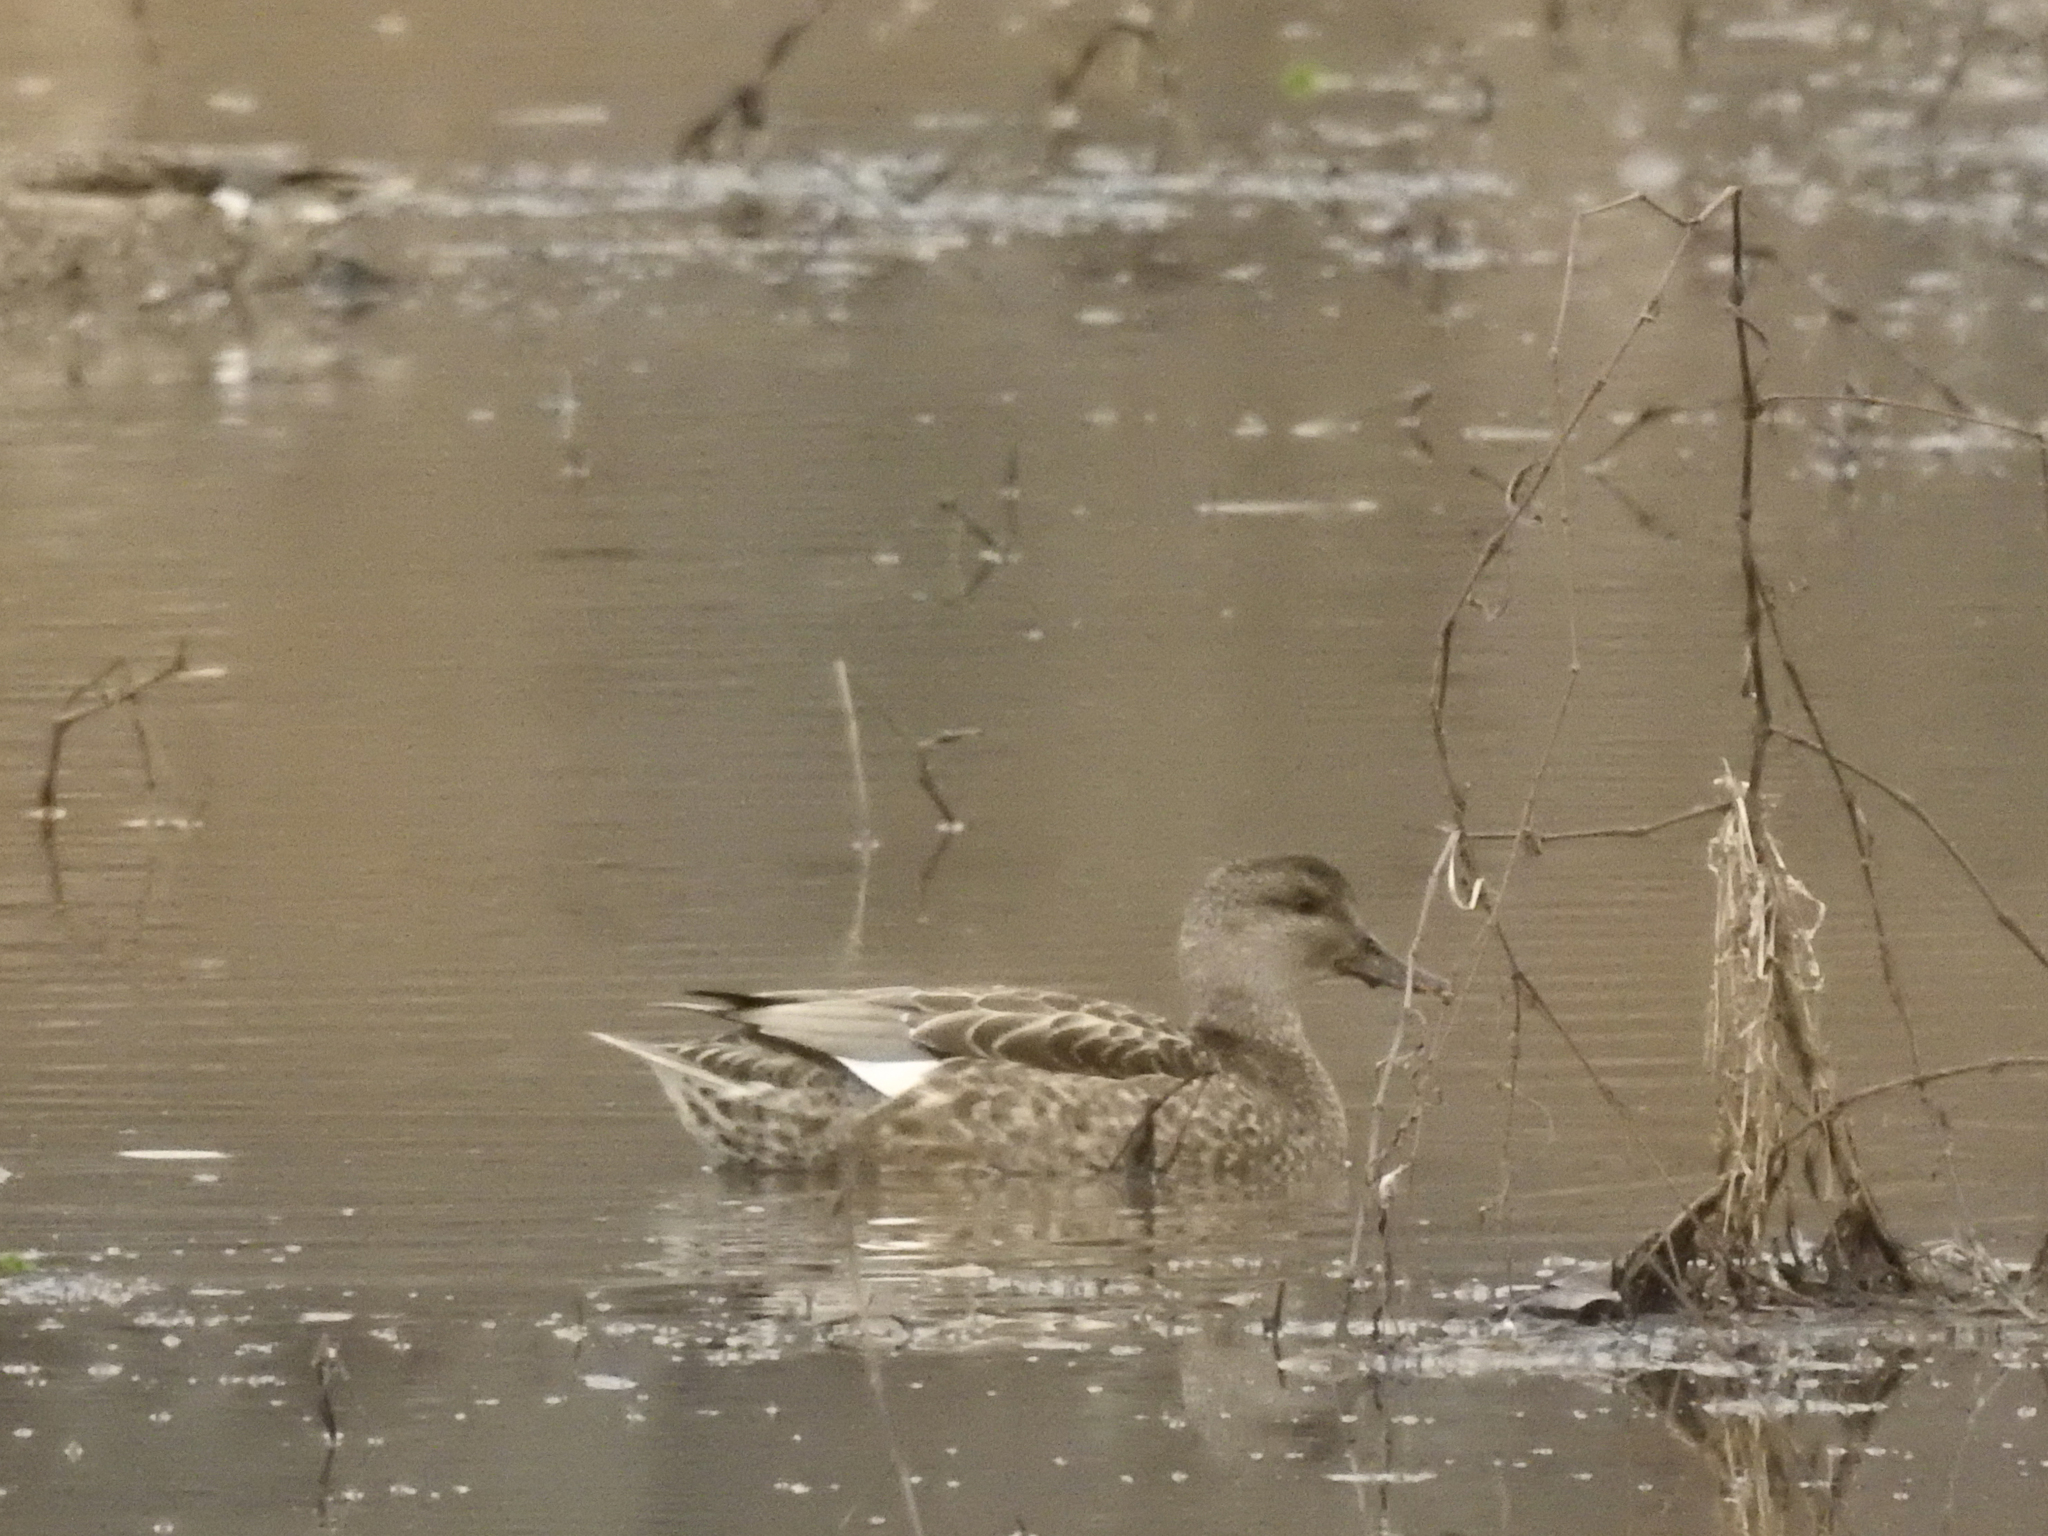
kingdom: Animalia
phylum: Chordata
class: Aves
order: Anseriformes
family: Anatidae
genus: Mareca
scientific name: Mareca strepera
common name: Gadwall
